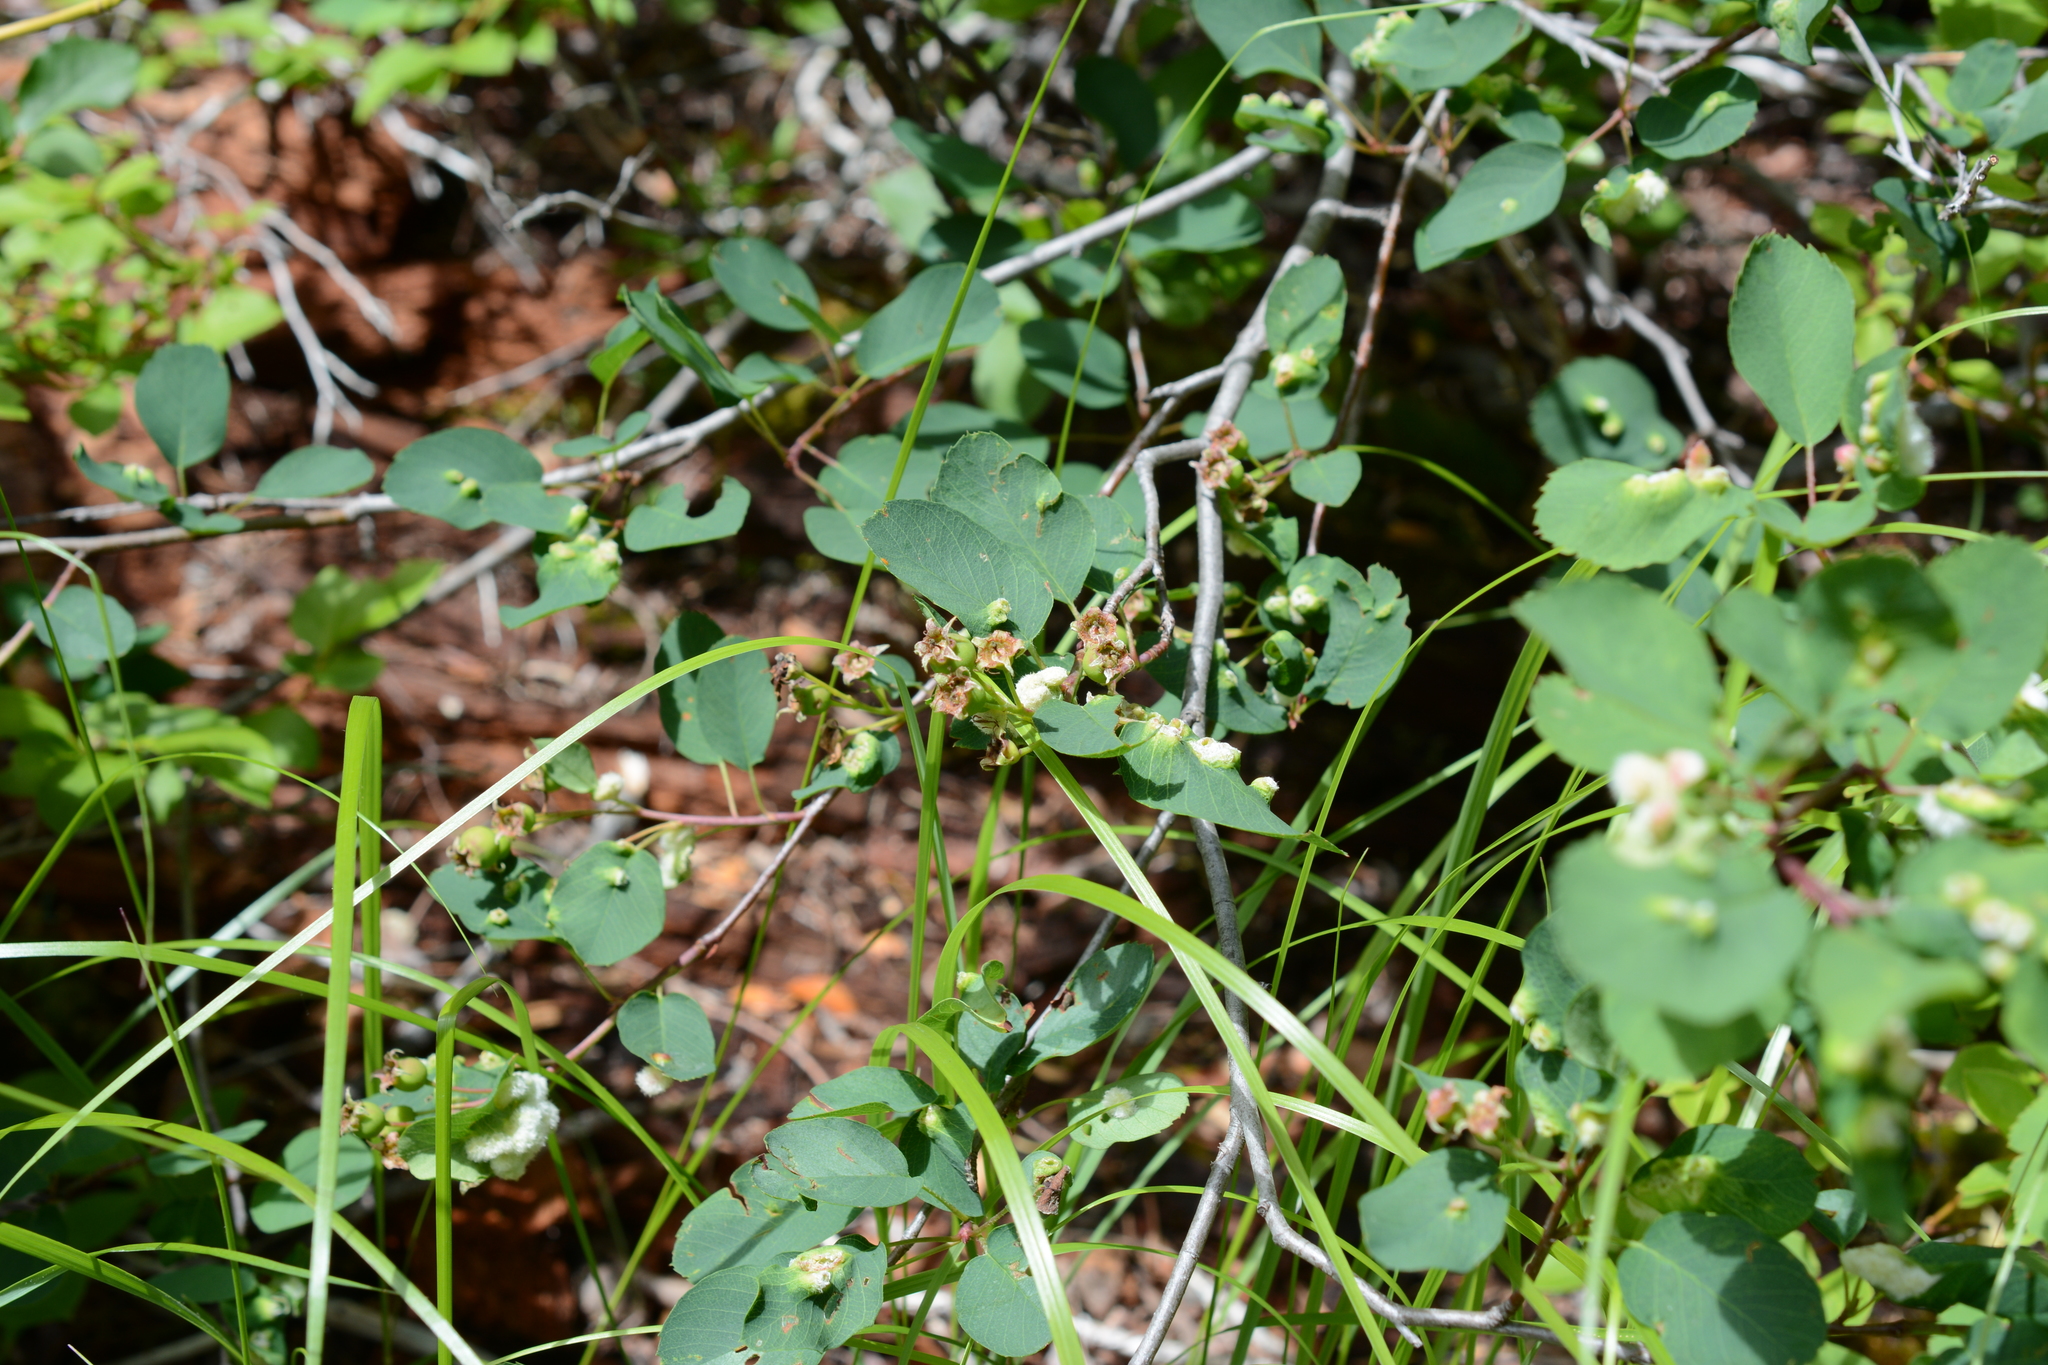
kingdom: Plantae
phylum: Tracheophyta
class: Magnoliopsida
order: Rosales
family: Rosaceae
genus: Amelanchier
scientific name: Amelanchier alnifolia
